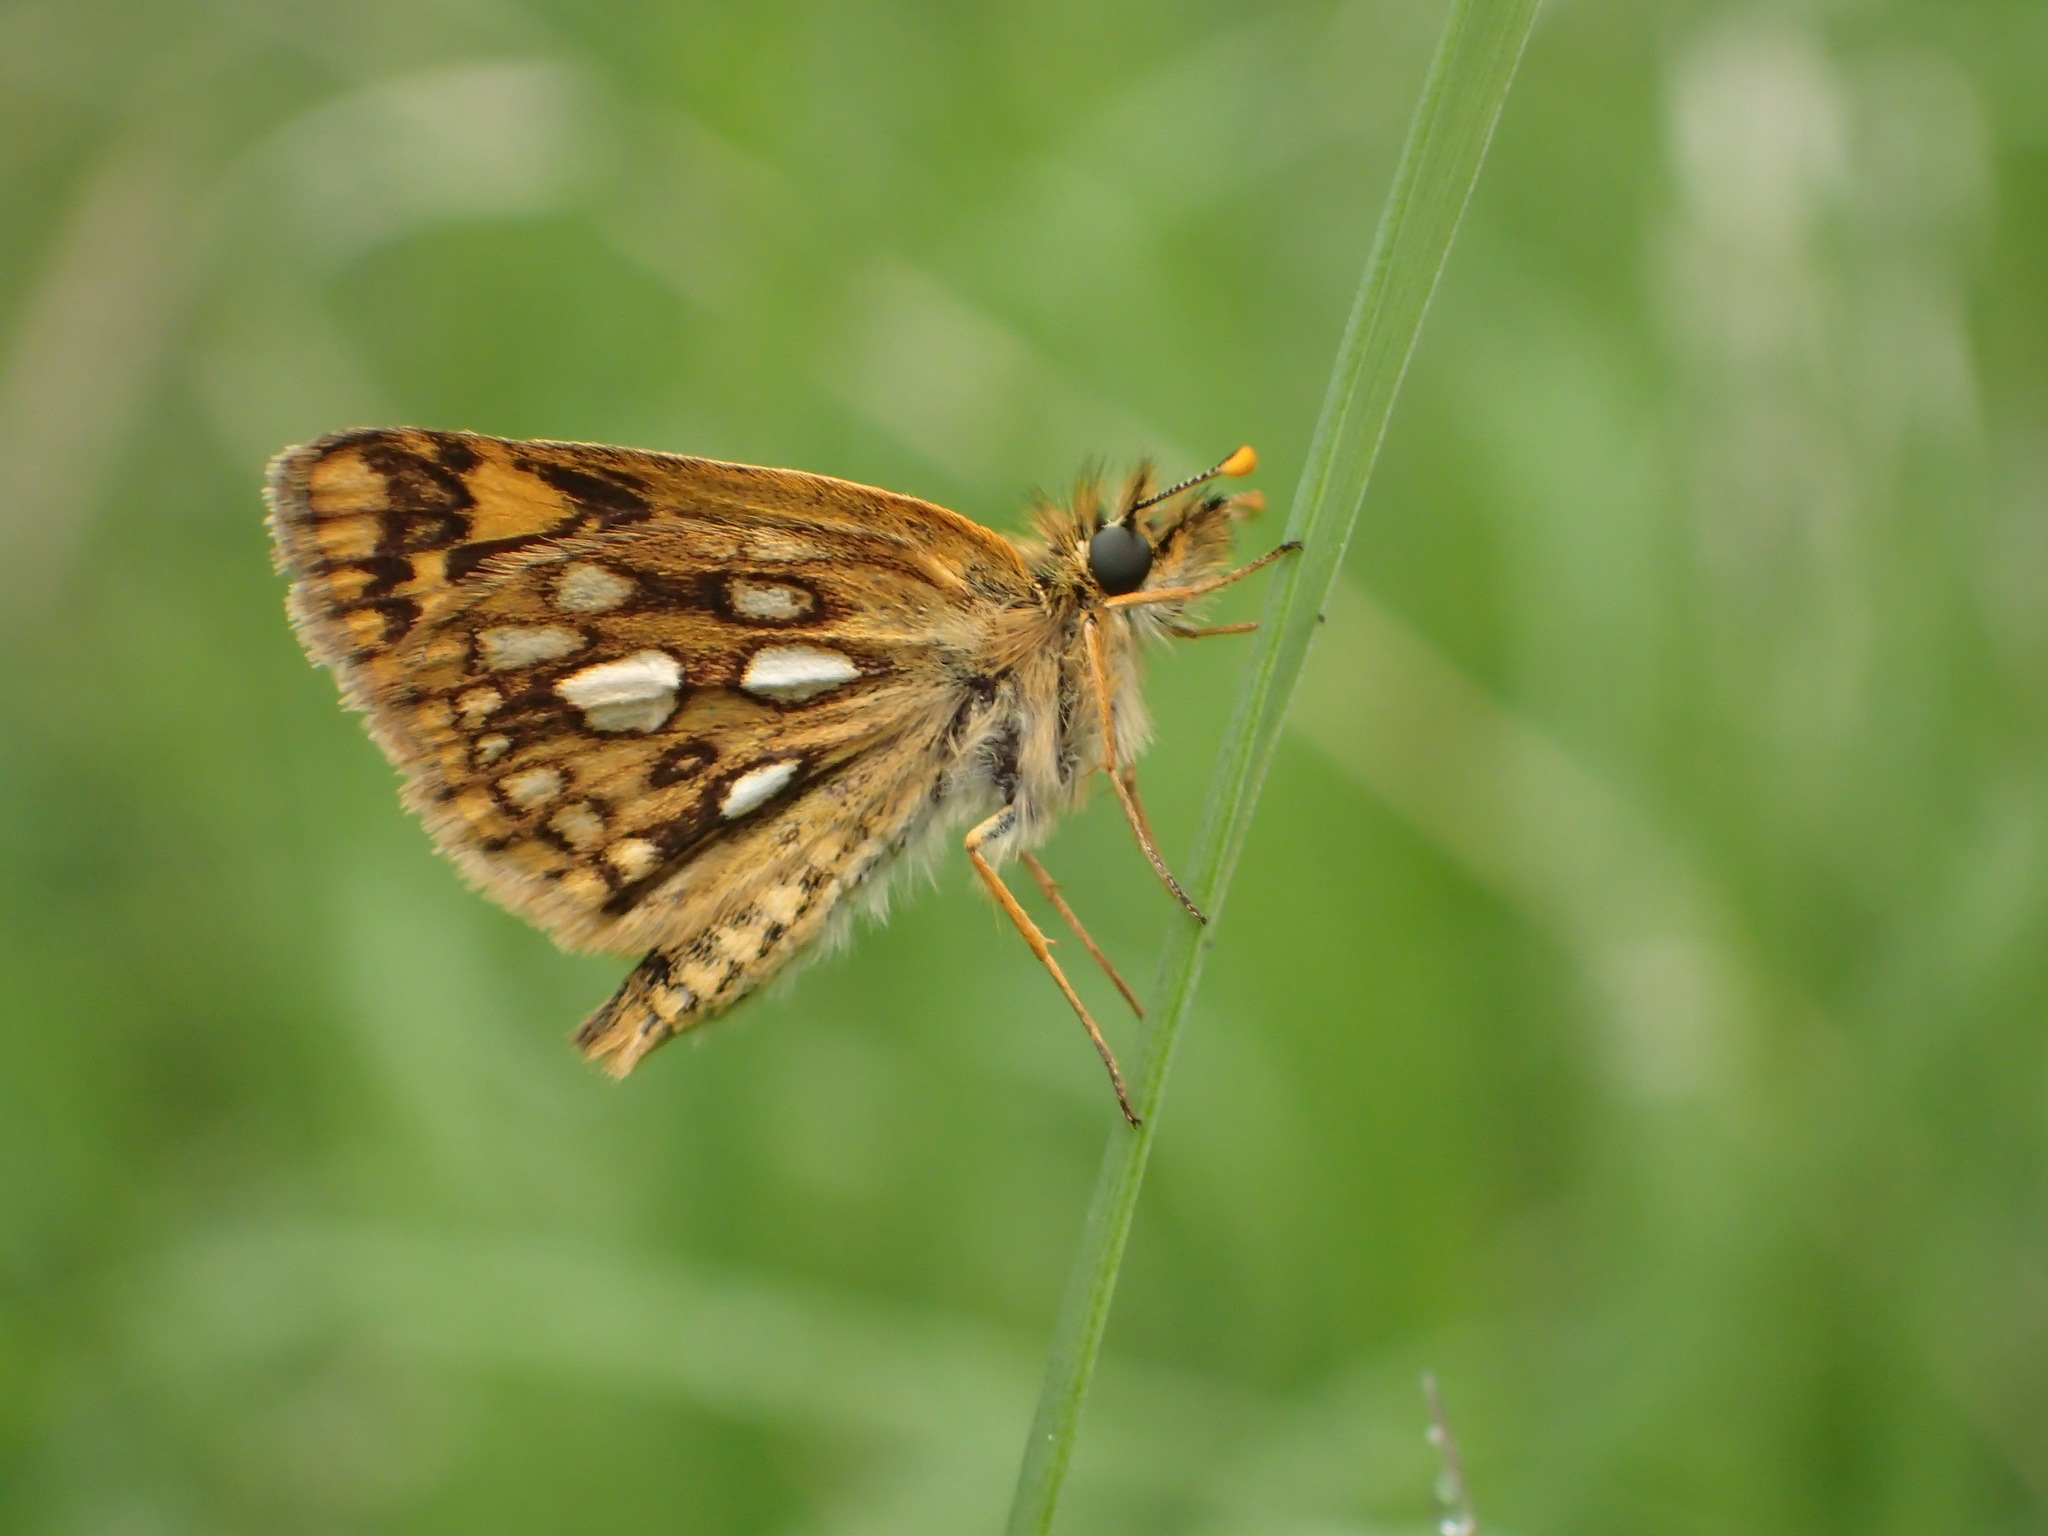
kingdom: Animalia
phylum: Arthropoda
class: Insecta
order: Lepidoptera
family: Hesperiidae
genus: Carterocephalus
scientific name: Carterocephalus mandan
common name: Arctic skipperling
